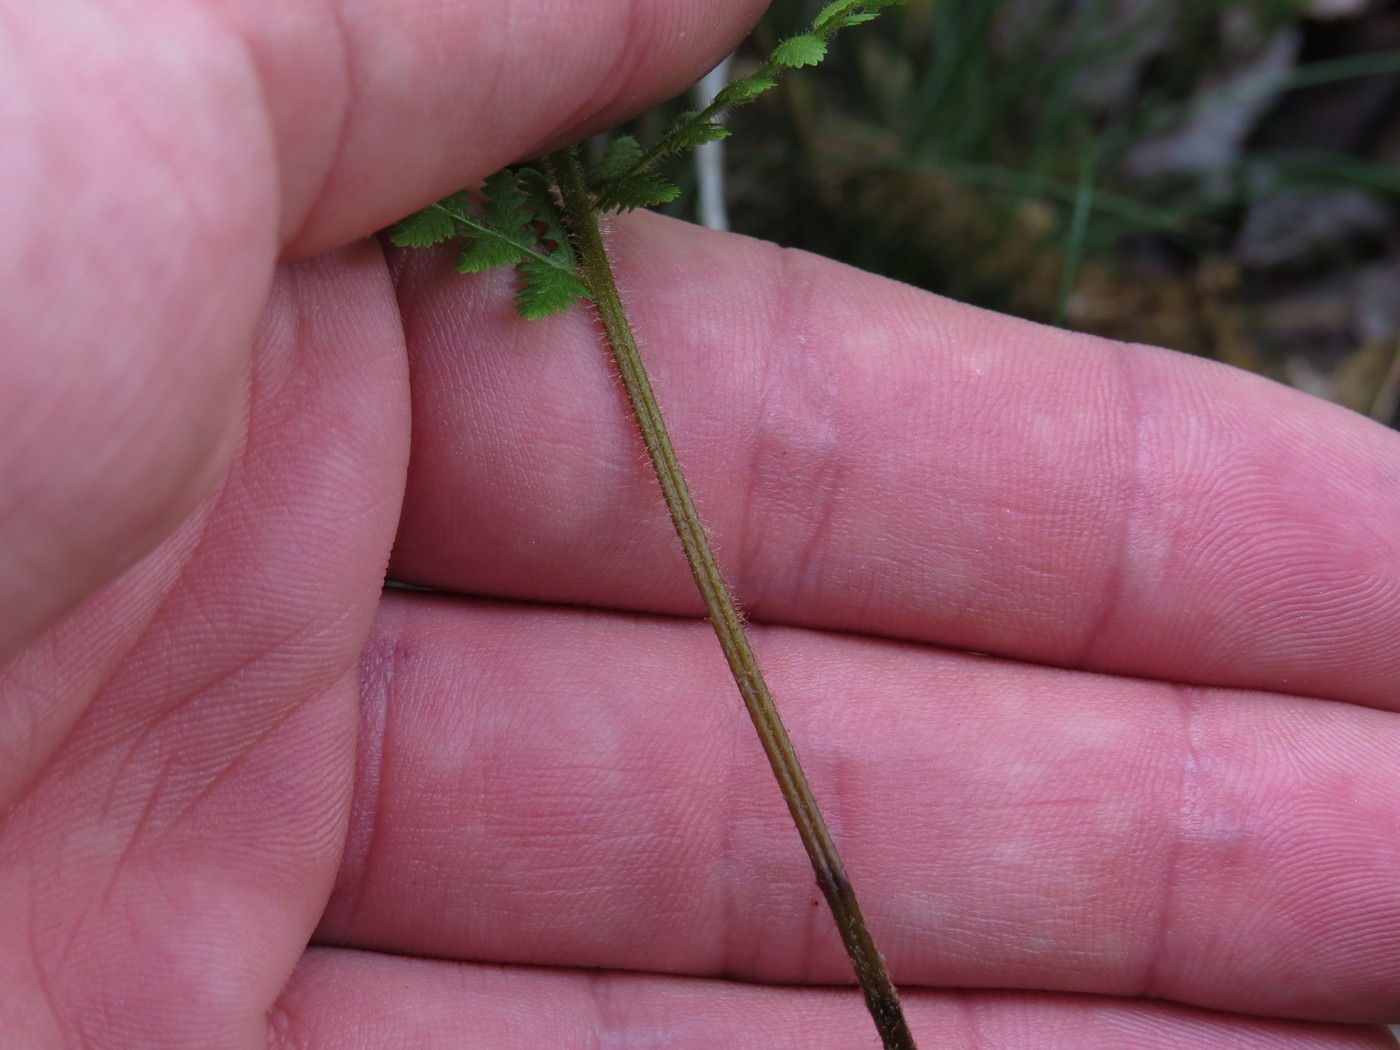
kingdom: Plantae
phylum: Tracheophyta
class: Polypodiopsida
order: Polypodiales
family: Dennstaedtiaceae
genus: Sitobolium
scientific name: Sitobolium punctilobum
